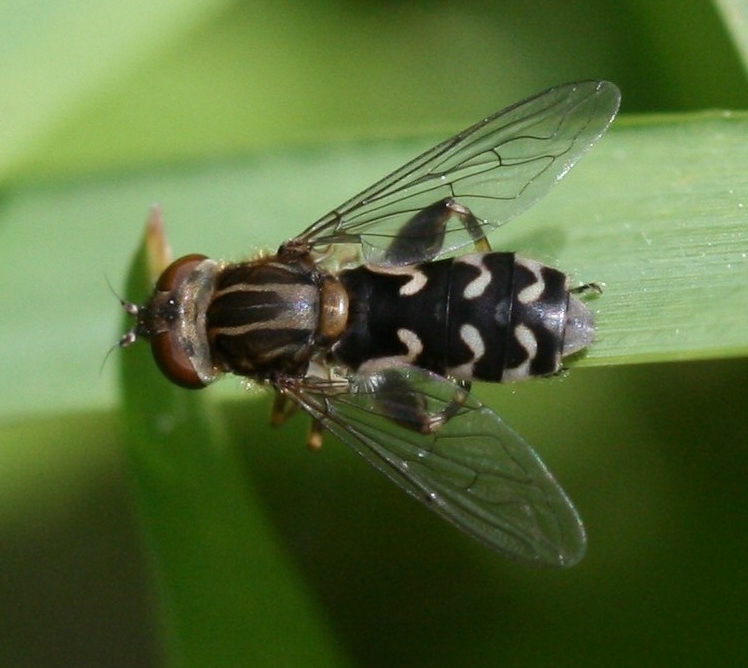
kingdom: Animalia
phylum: Arthropoda
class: Insecta
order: Diptera
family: Syrphidae
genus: Anasimyia
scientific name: Anasimyia contracta
